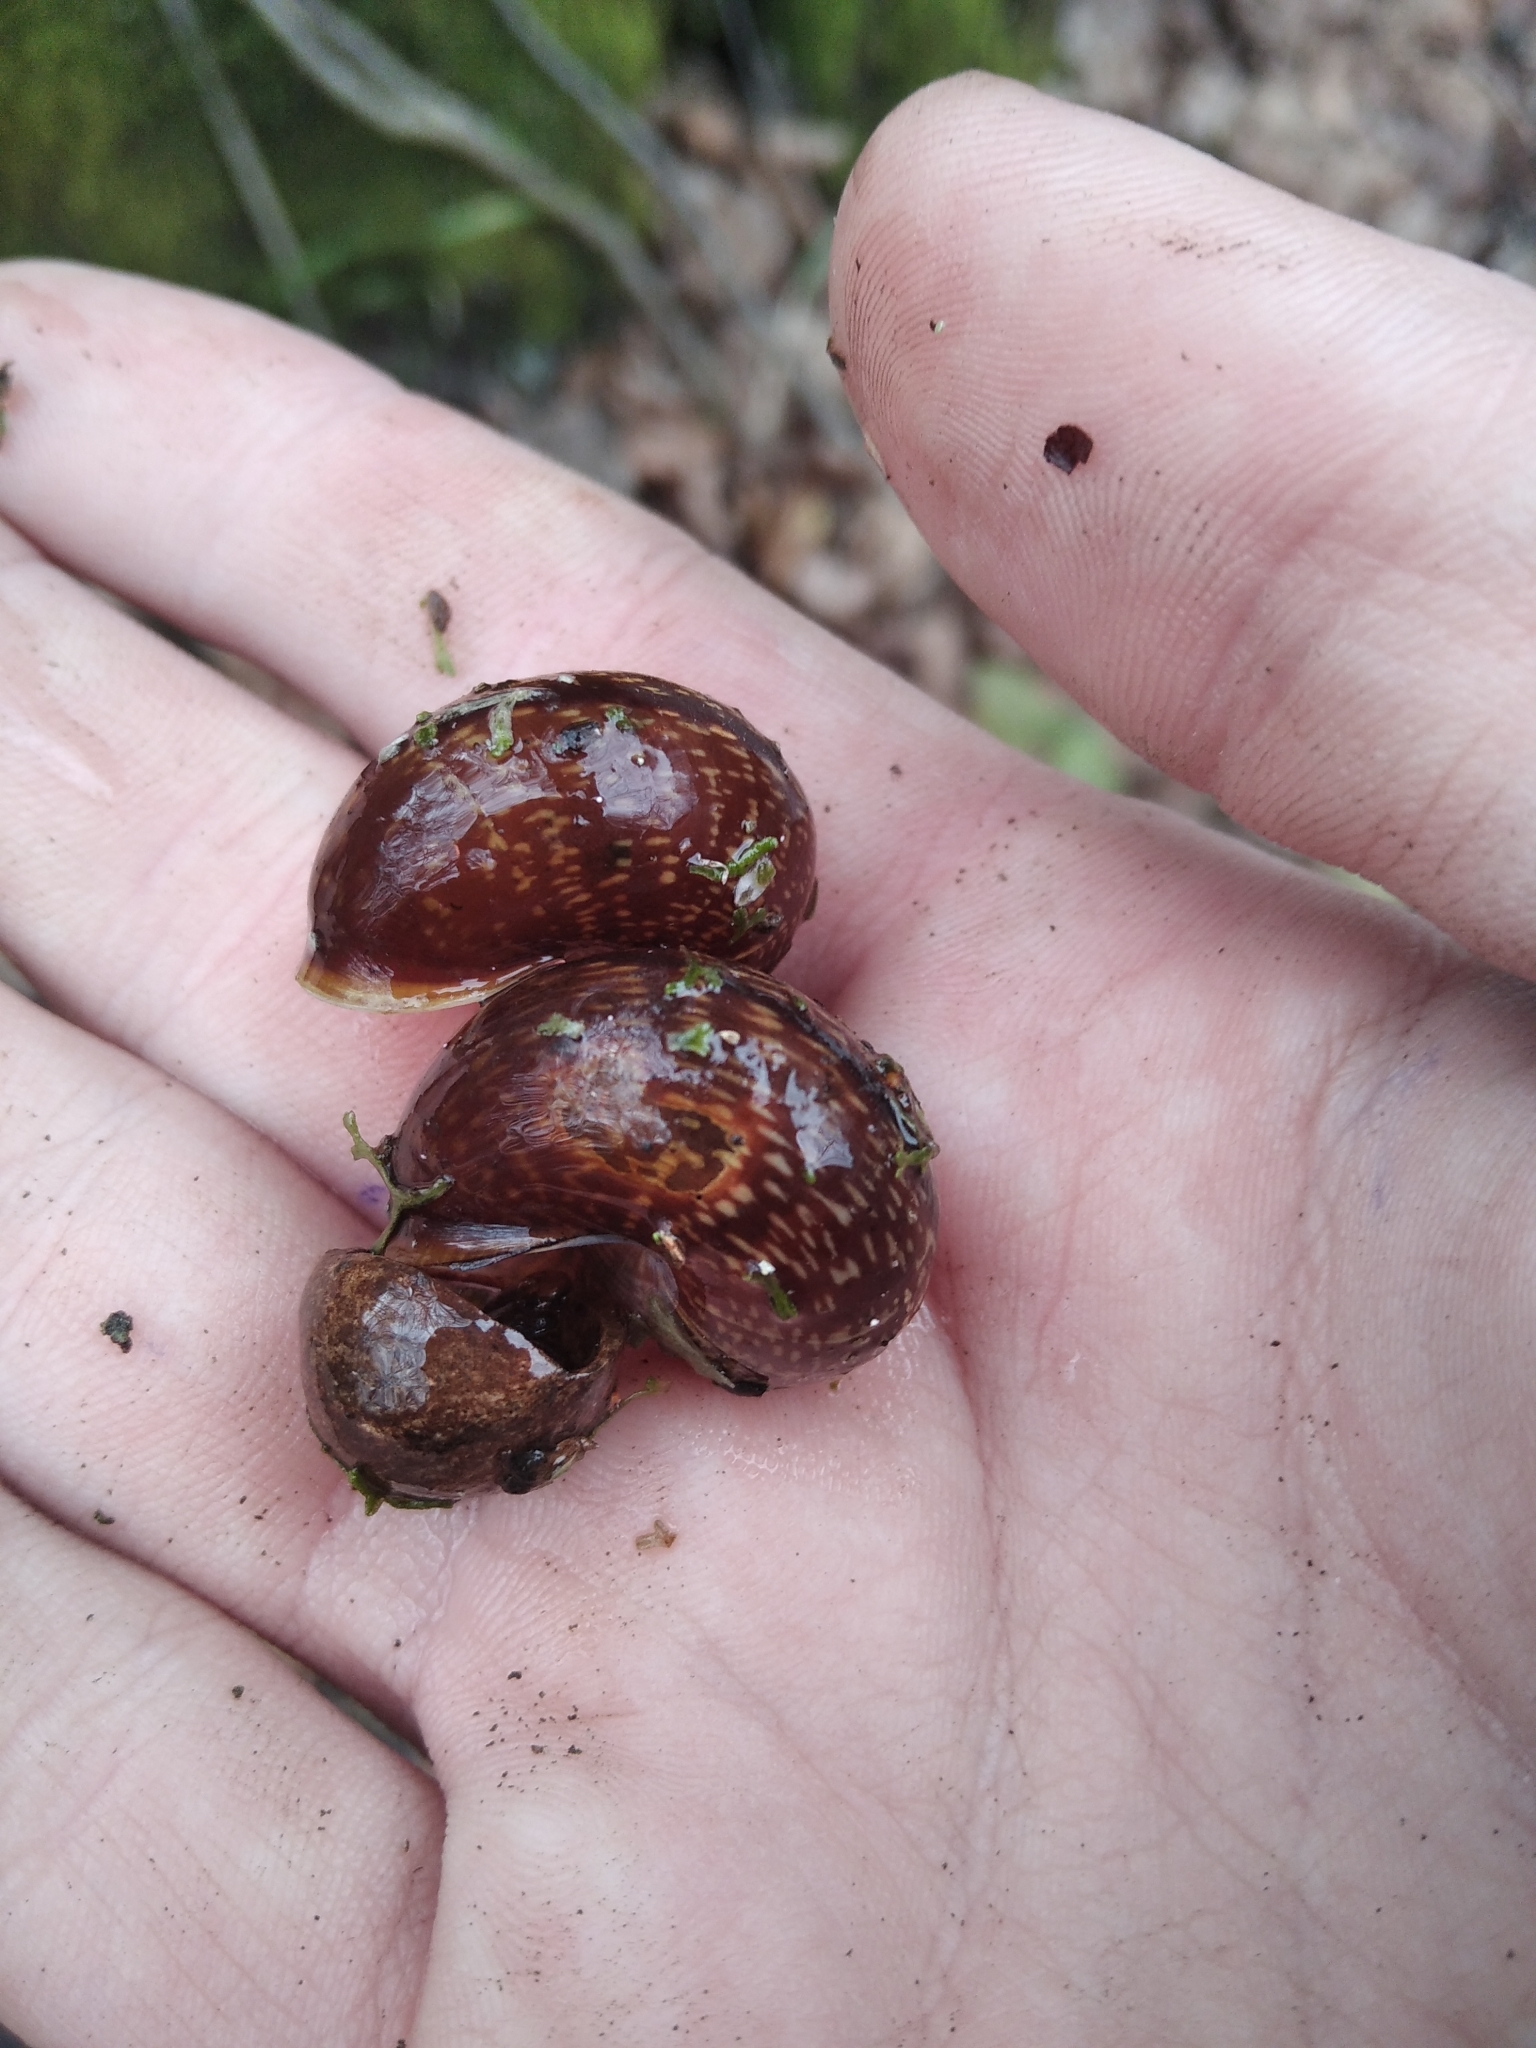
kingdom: Animalia
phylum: Mollusca
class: Gastropoda
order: Stylommatophora
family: Helicidae
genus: Arianta
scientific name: Arianta arbustorum
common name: Copse snail
